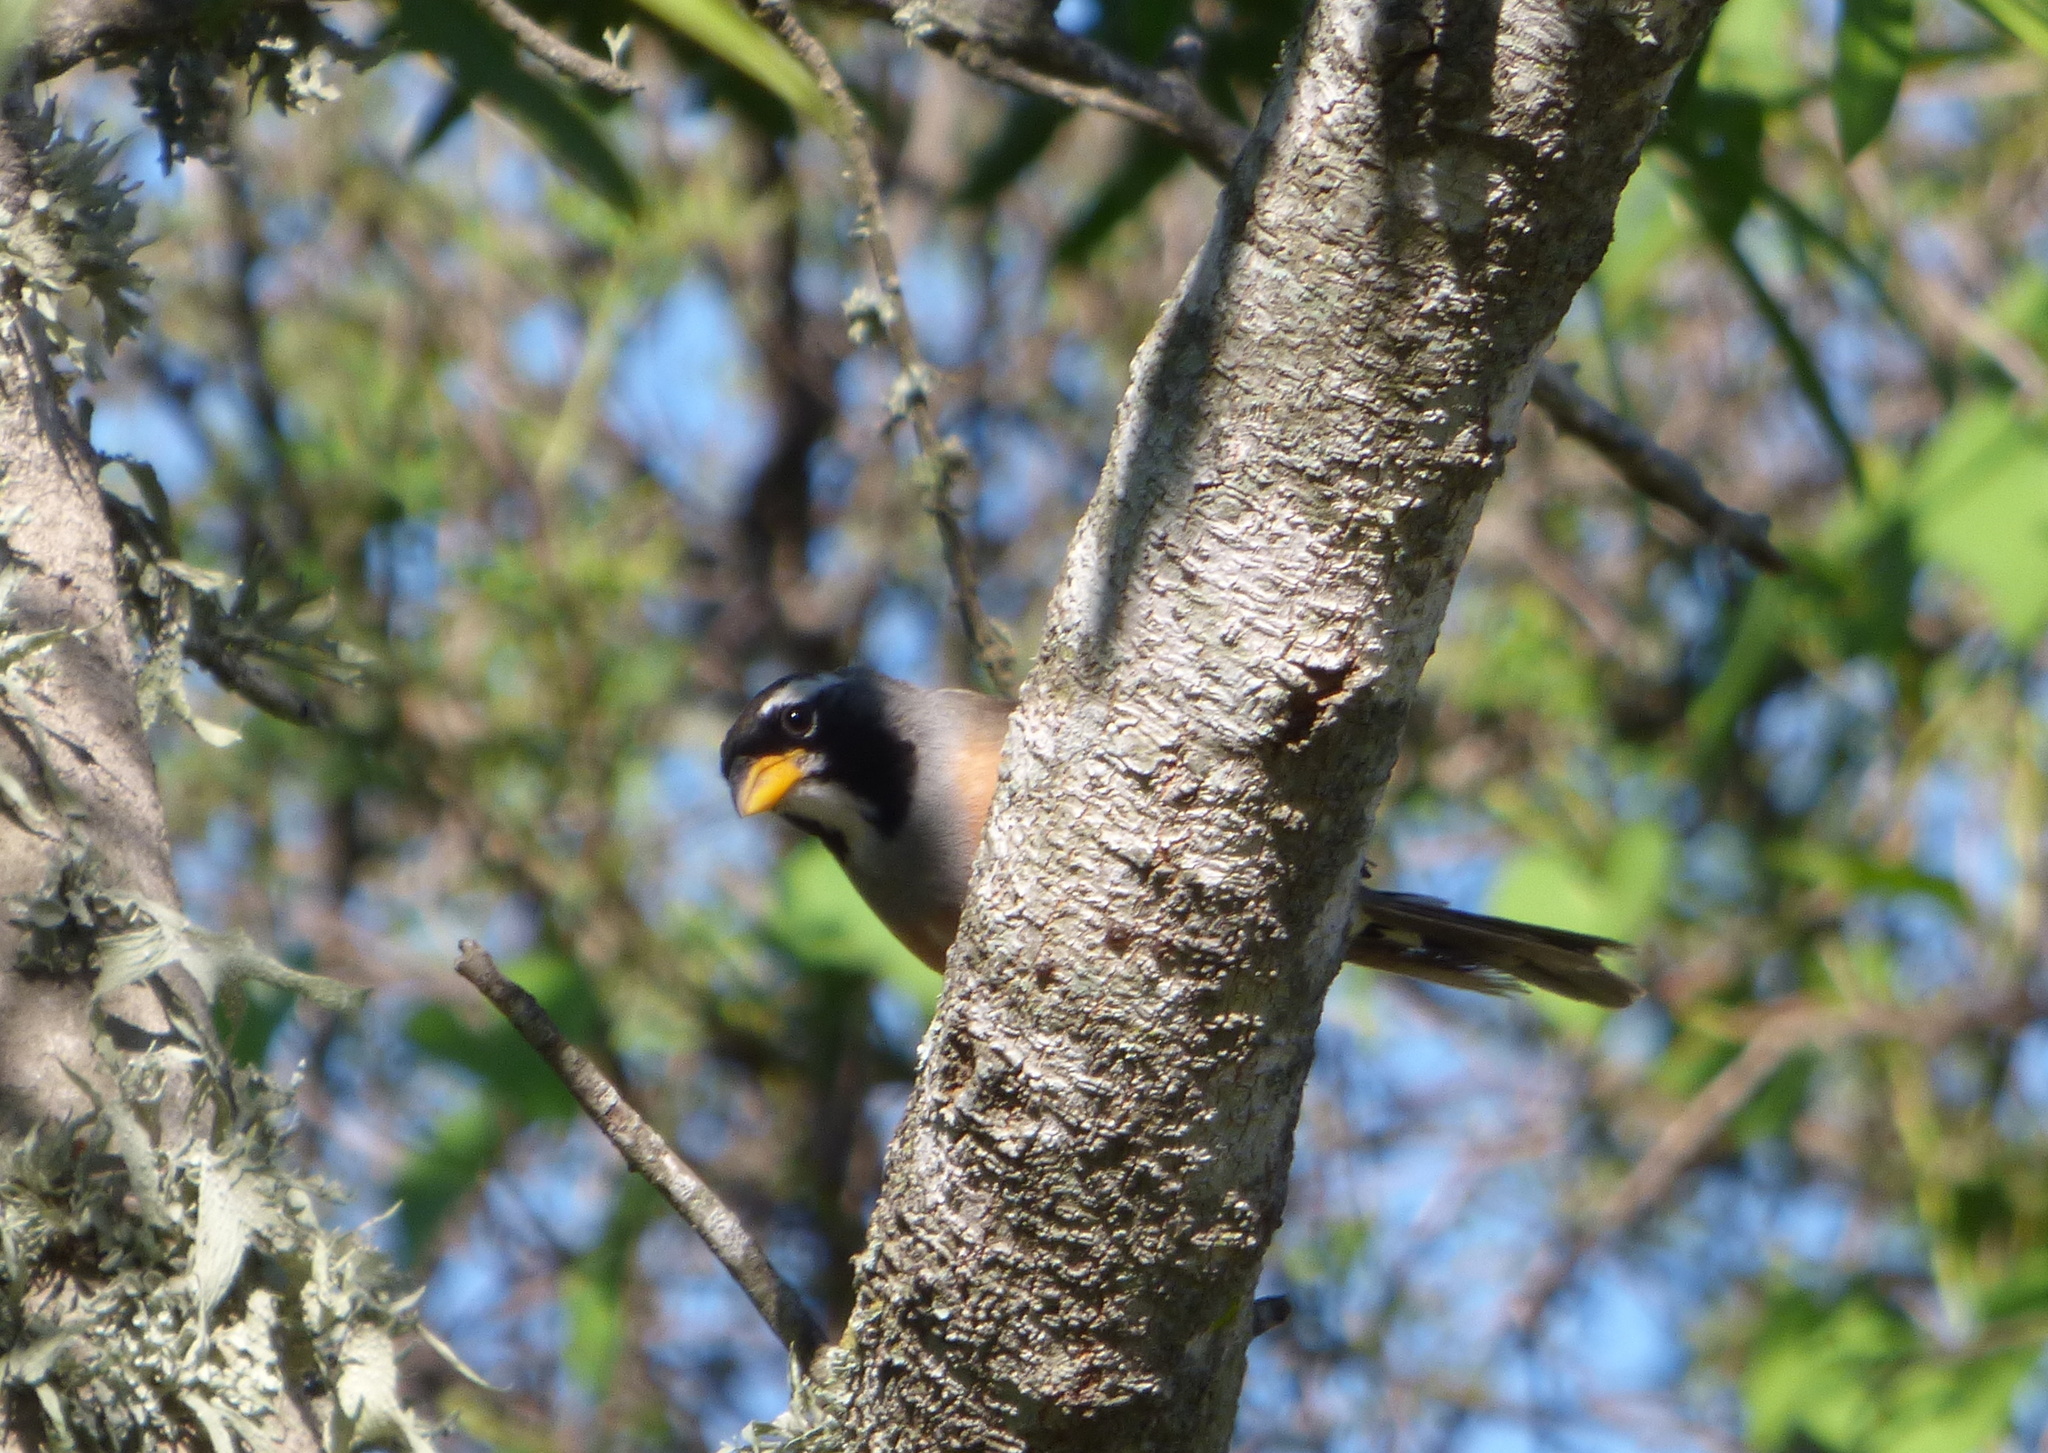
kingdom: Animalia
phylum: Chordata
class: Aves
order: Passeriformes
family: Thraupidae
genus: Saltatricula
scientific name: Saltatricula multicolor
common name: Many-colored chaco finch
